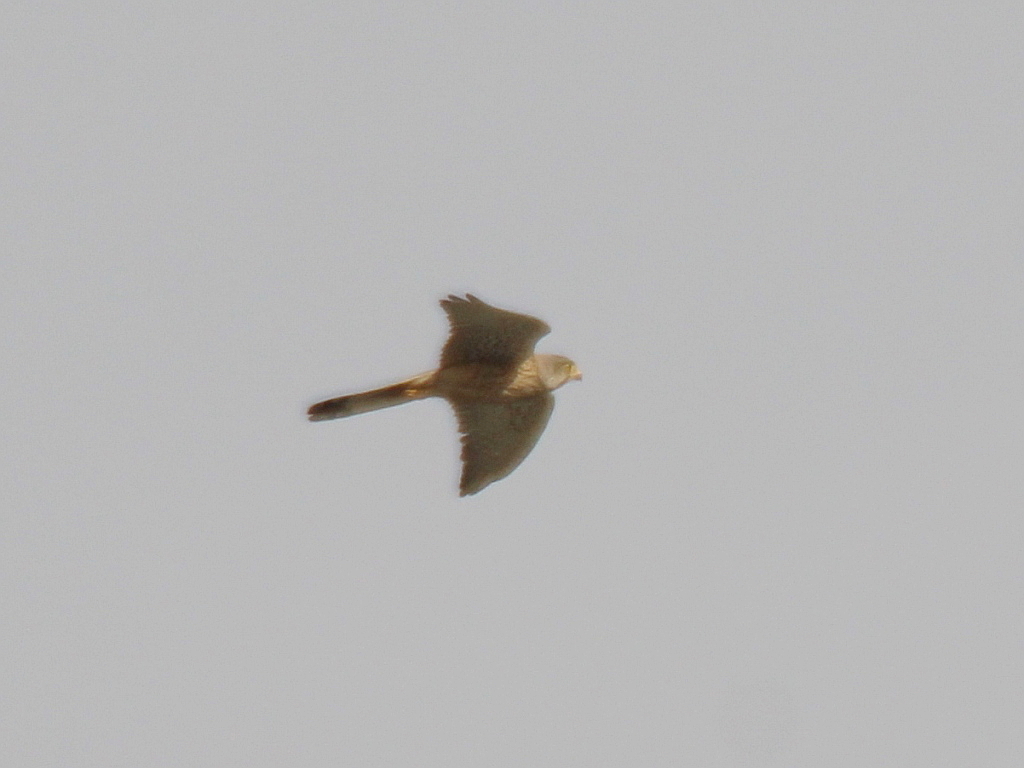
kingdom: Animalia
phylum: Chordata
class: Aves
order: Falconiformes
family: Falconidae
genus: Falco
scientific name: Falco tinnunculus
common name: Common kestrel
